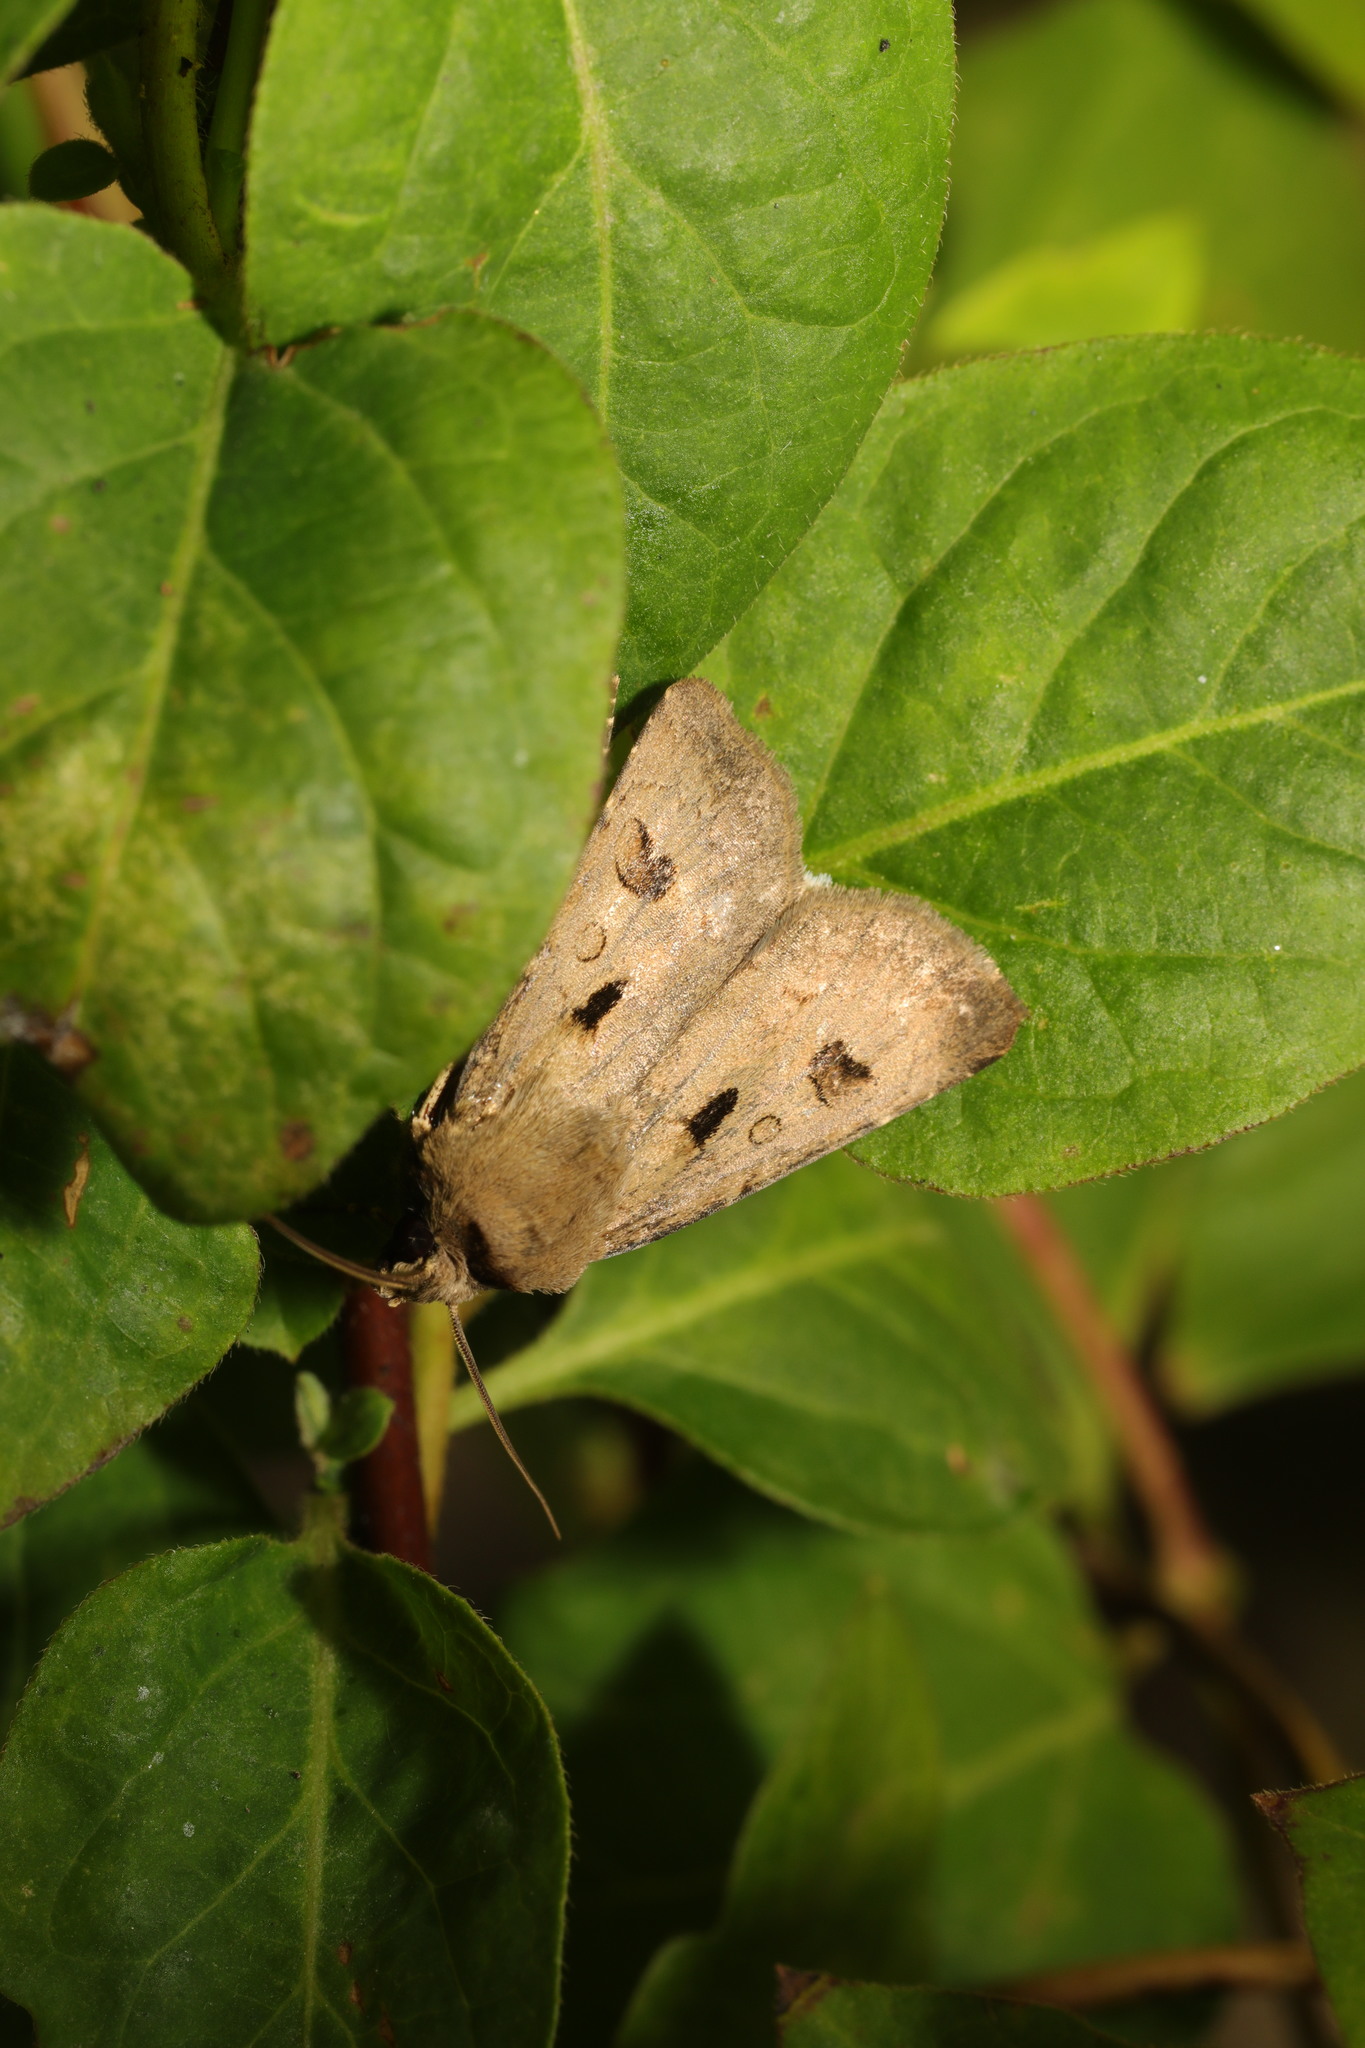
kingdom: Animalia
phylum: Arthropoda
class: Insecta
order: Lepidoptera
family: Noctuidae
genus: Agrotis
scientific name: Agrotis exclamationis
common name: Heart and dart
